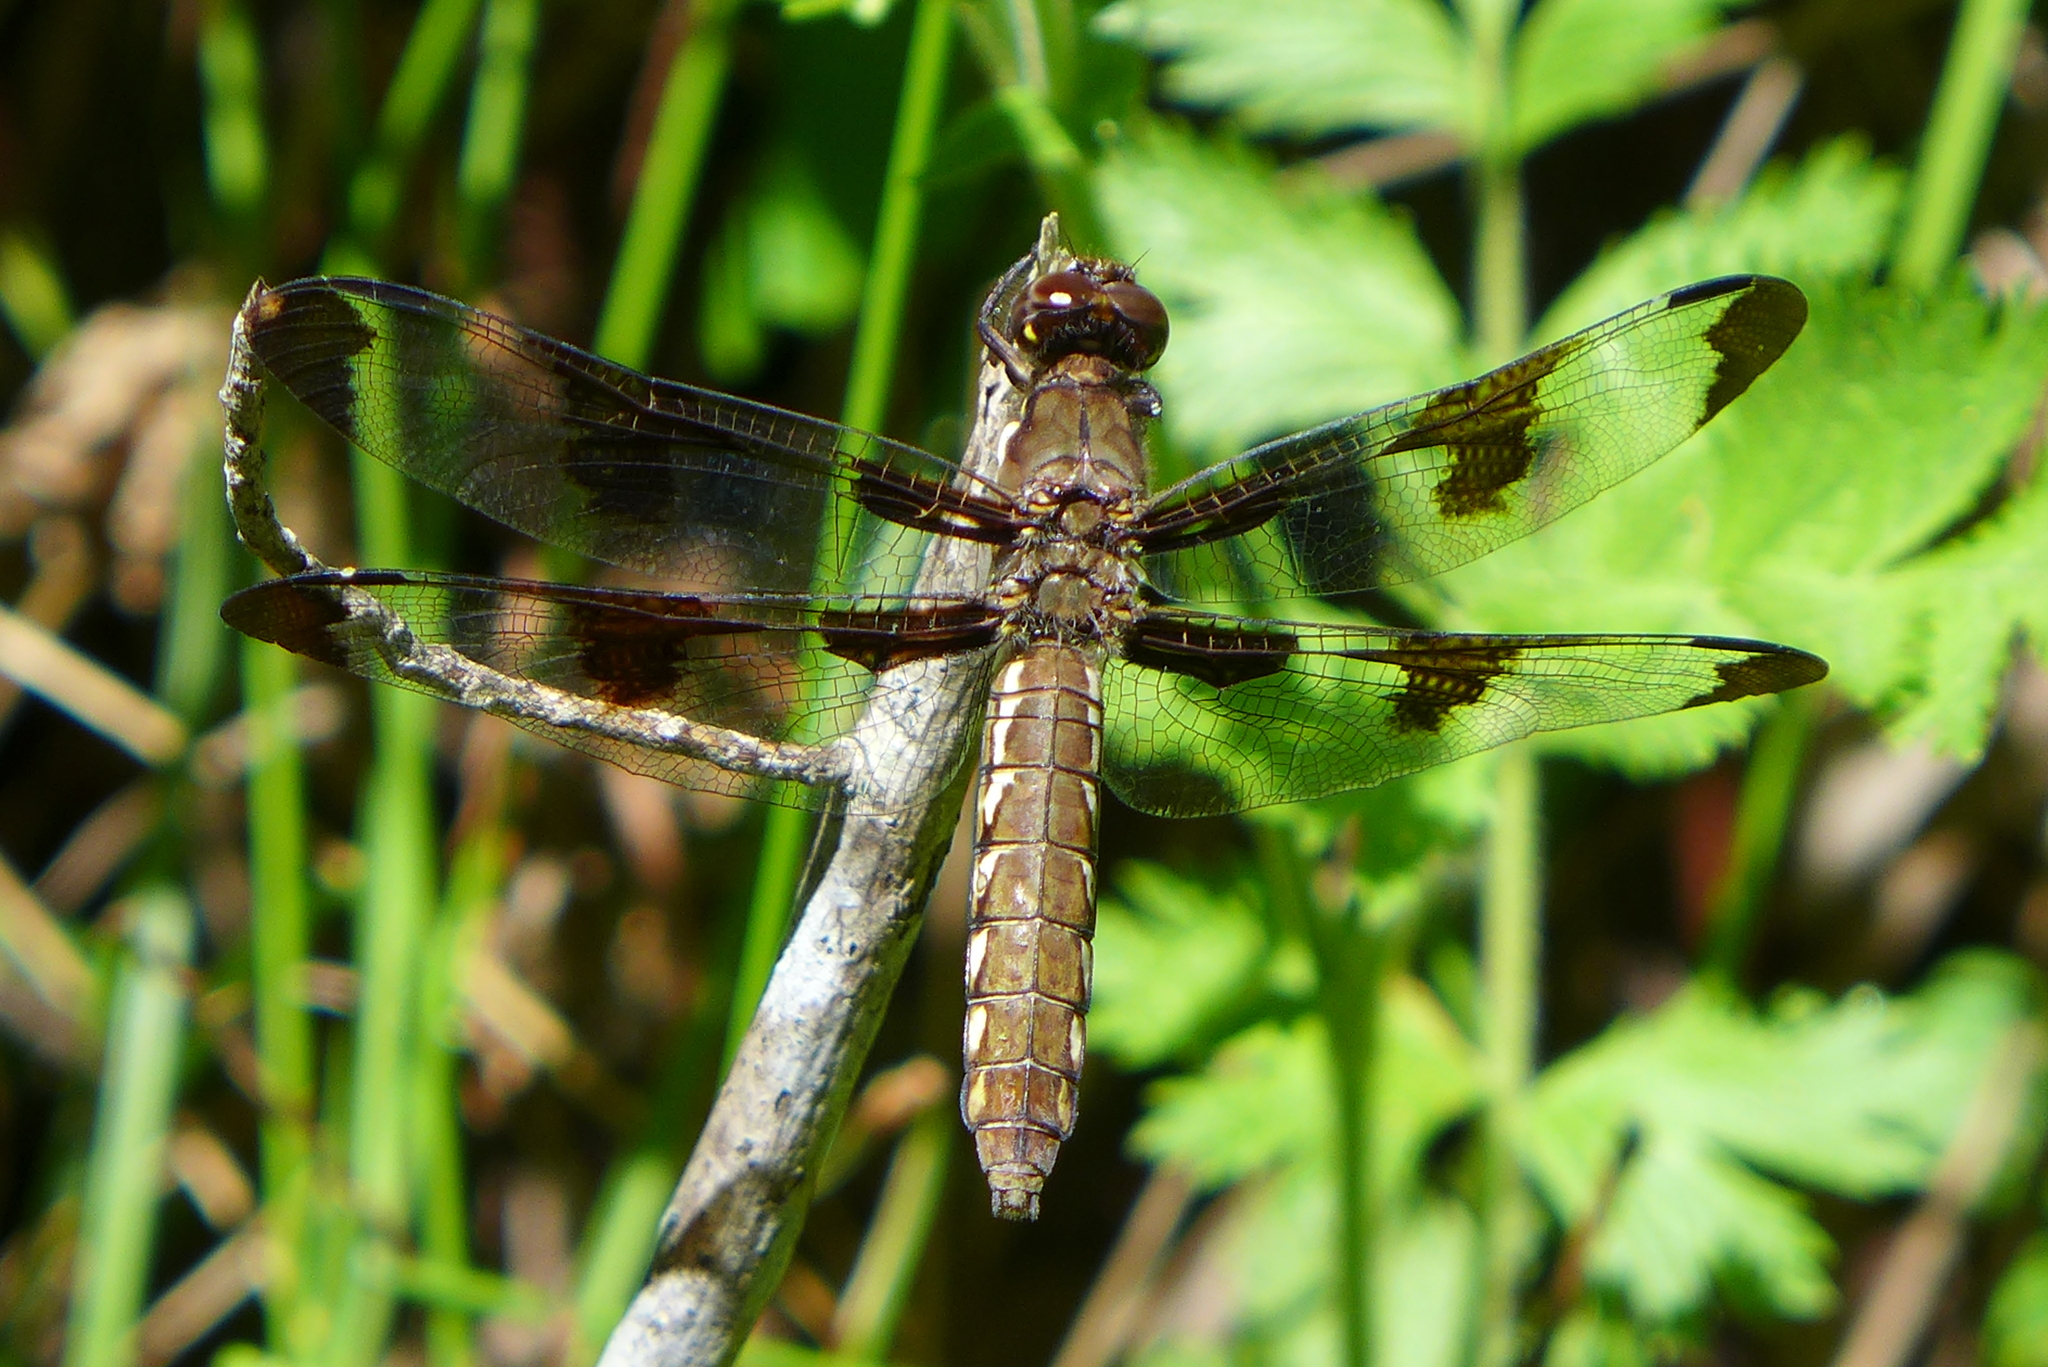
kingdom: Animalia
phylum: Arthropoda
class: Insecta
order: Odonata
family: Libellulidae
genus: Plathemis
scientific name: Plathemis lydia
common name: Common whitetail
